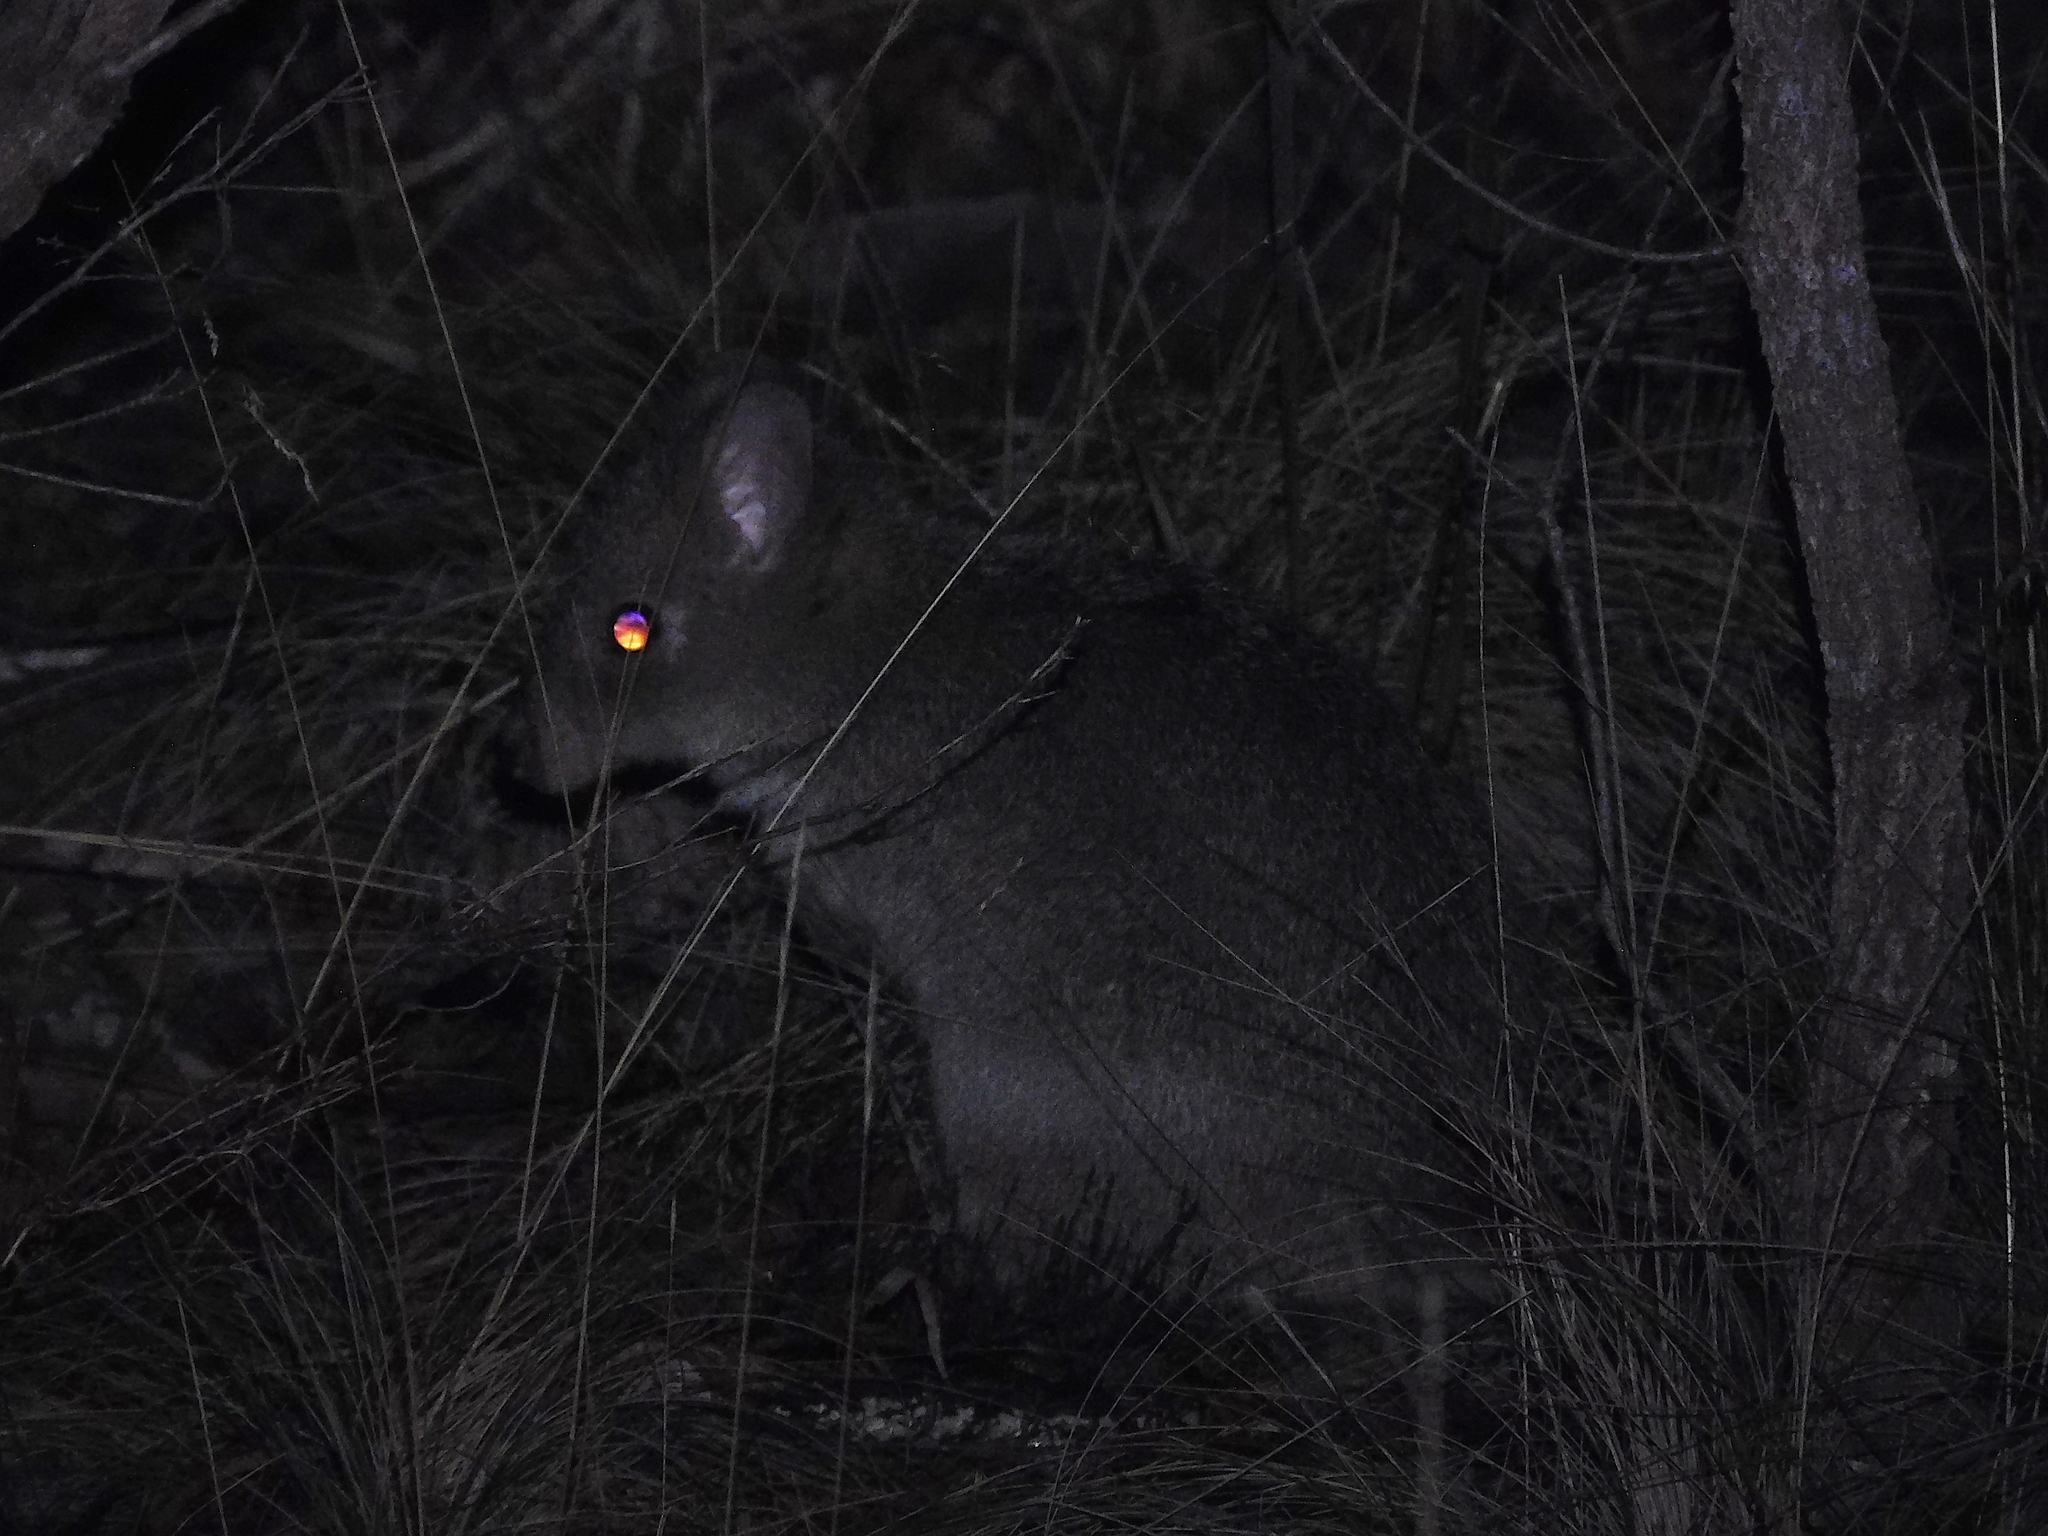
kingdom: Animalia
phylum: Chordata
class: Mammalia
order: Diprotodontia
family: Potoroidae
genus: Bettongia
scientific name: Bettongia gaimardi
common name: Eastern bettong
